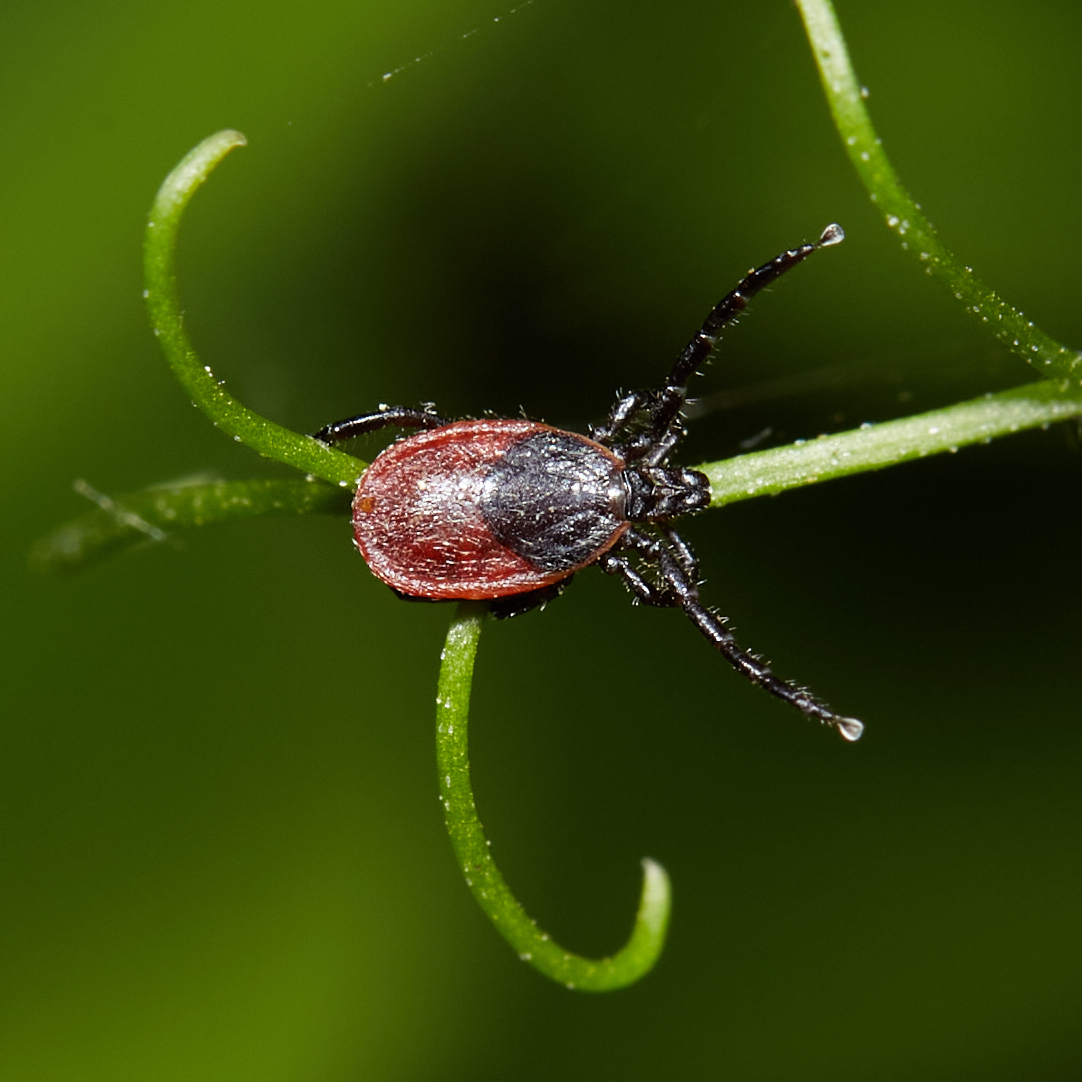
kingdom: Animalia
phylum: Arthropoda
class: Arachnida
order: Ixodida
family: Ixodidae
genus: Ixodes
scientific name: Ixodes pacificus
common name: California black-legged tick
